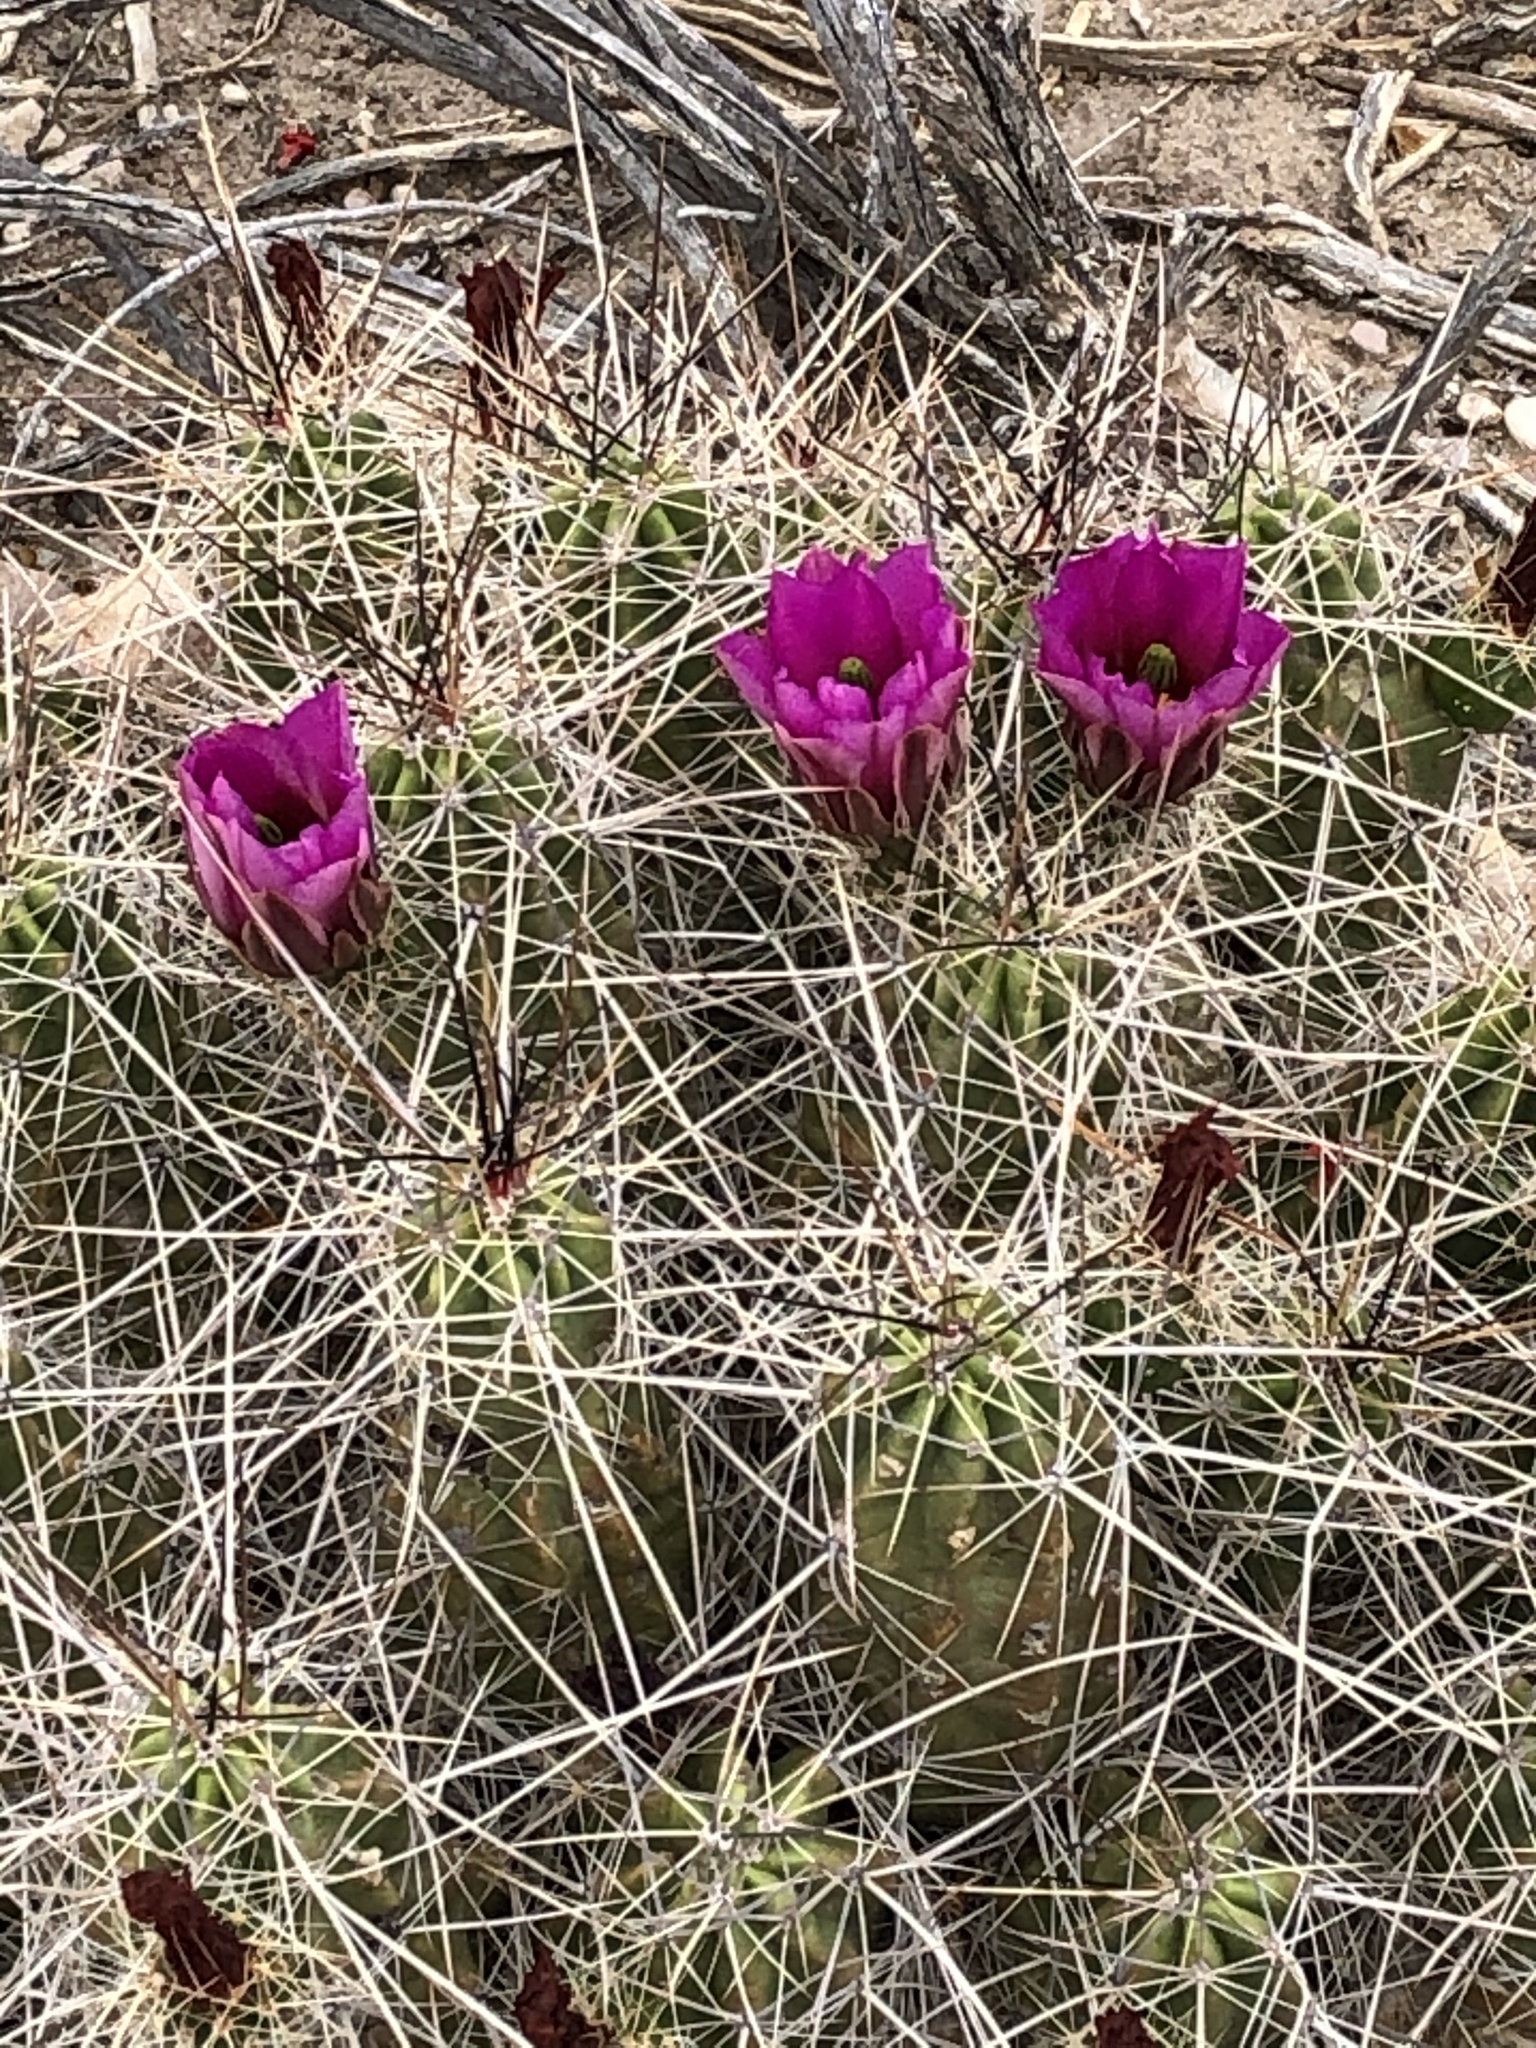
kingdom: Plantae
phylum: Tracheophyta
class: Magnoliopsida
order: Caryophyllales
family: Cactaceae
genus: Echinocereus
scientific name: Echinocereus enneacanthus
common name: Pitaya
